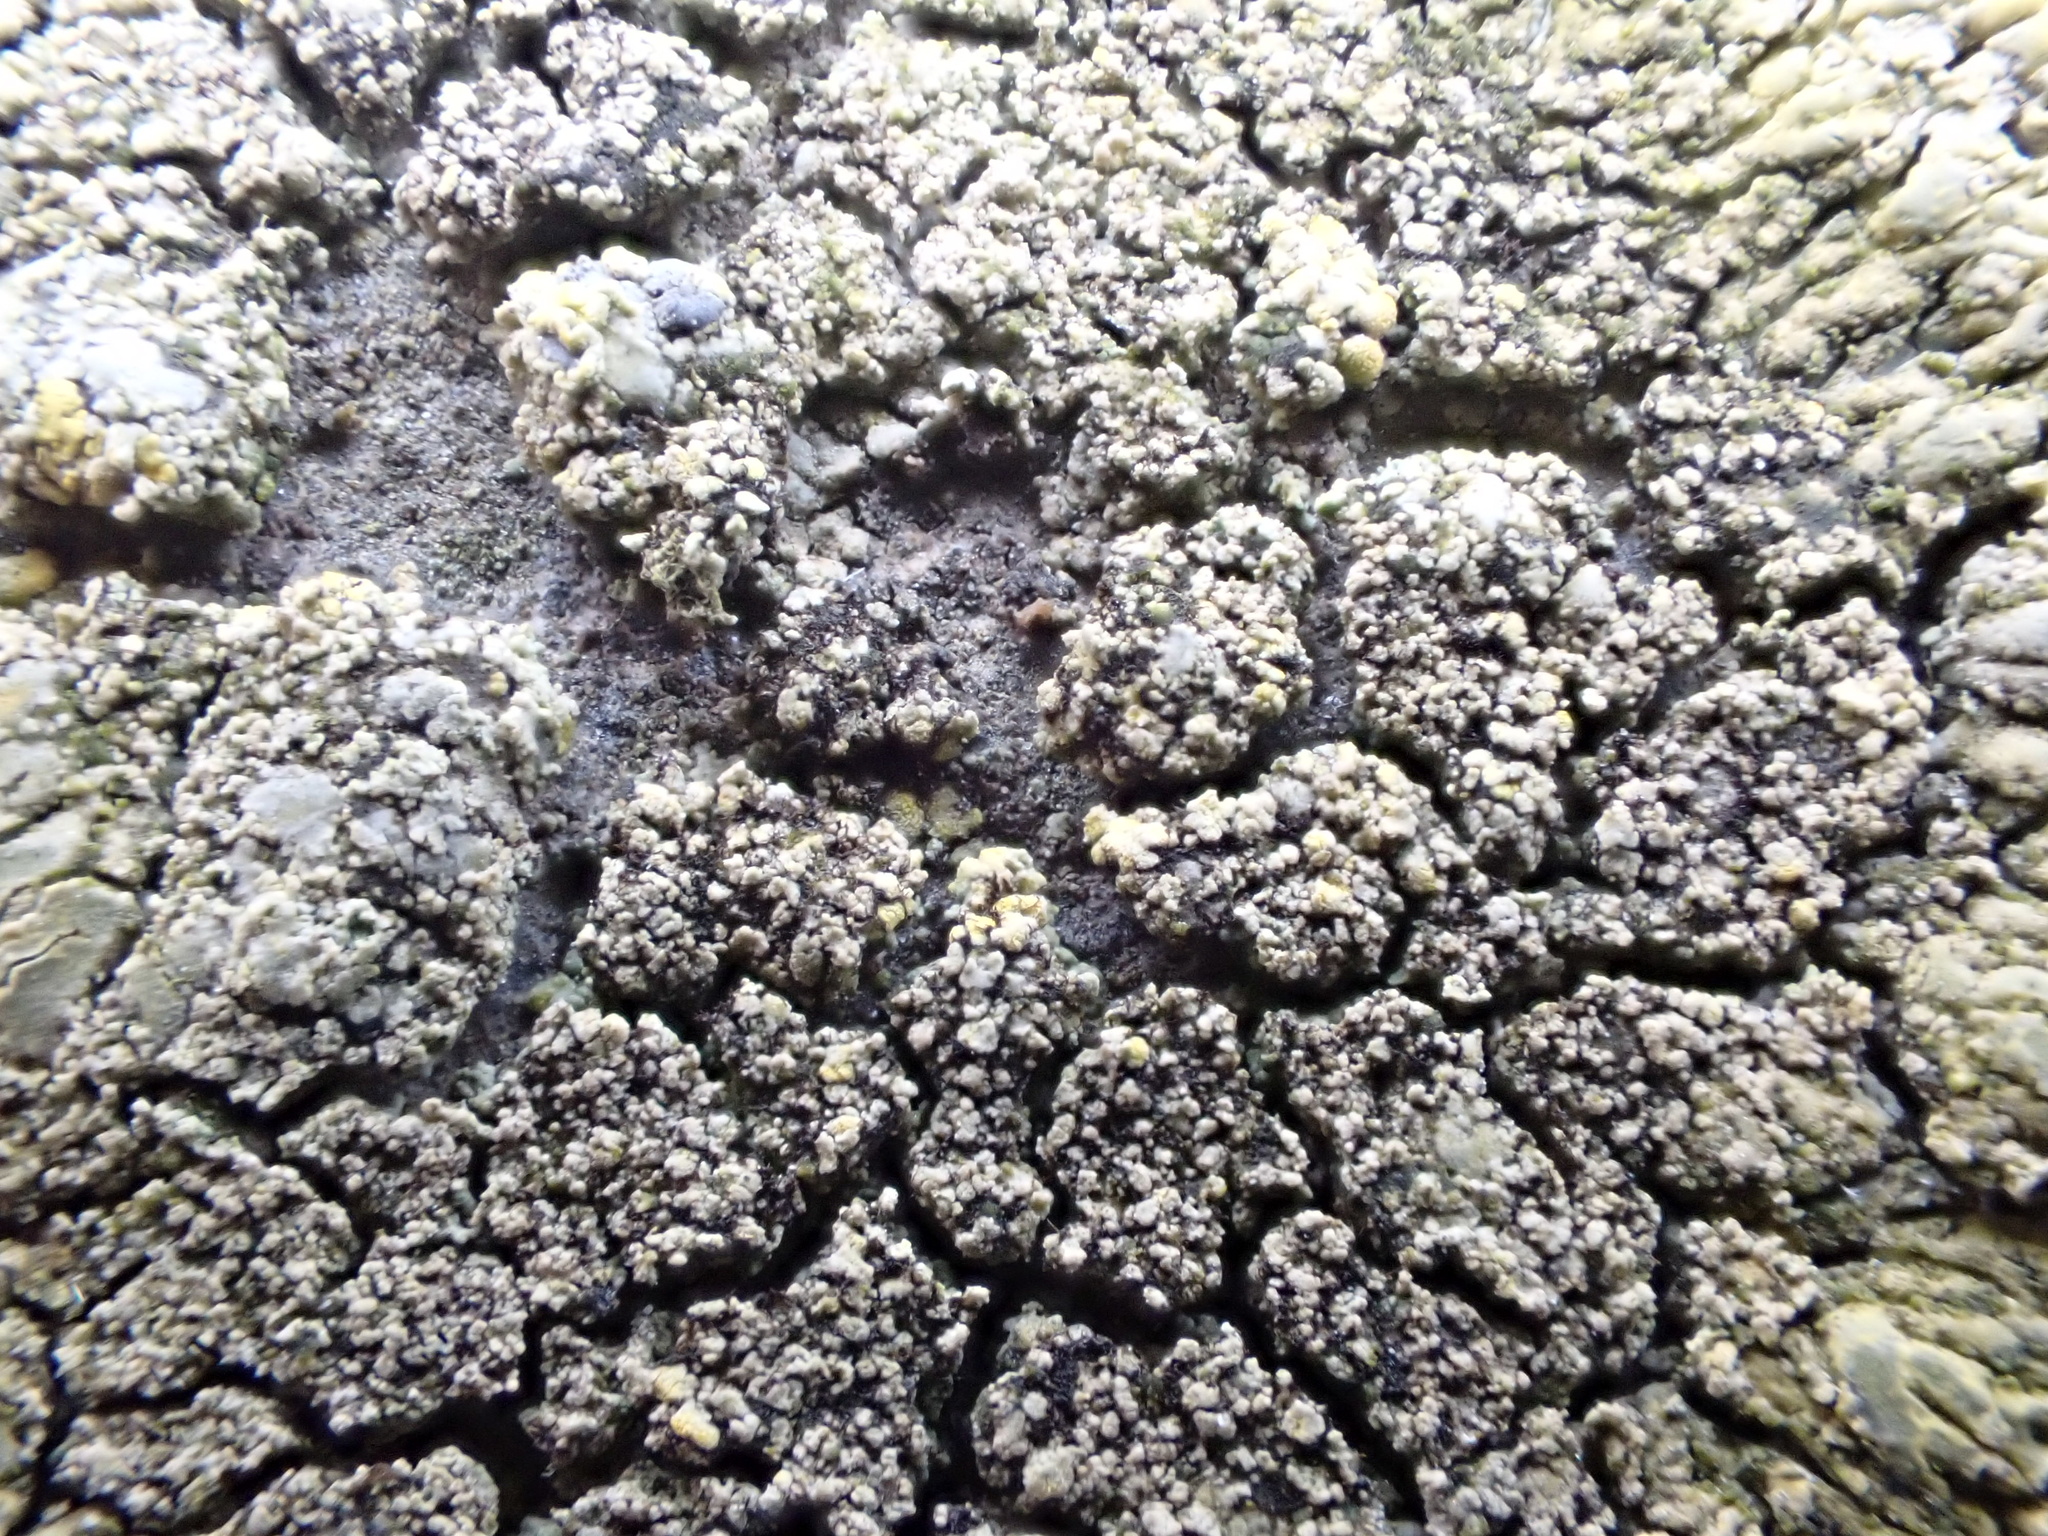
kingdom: Fungi
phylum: Ascomycota
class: Candelariomycetes
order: Candelariales
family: Candelariaceae
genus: Candelariella
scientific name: Candelariella medians
